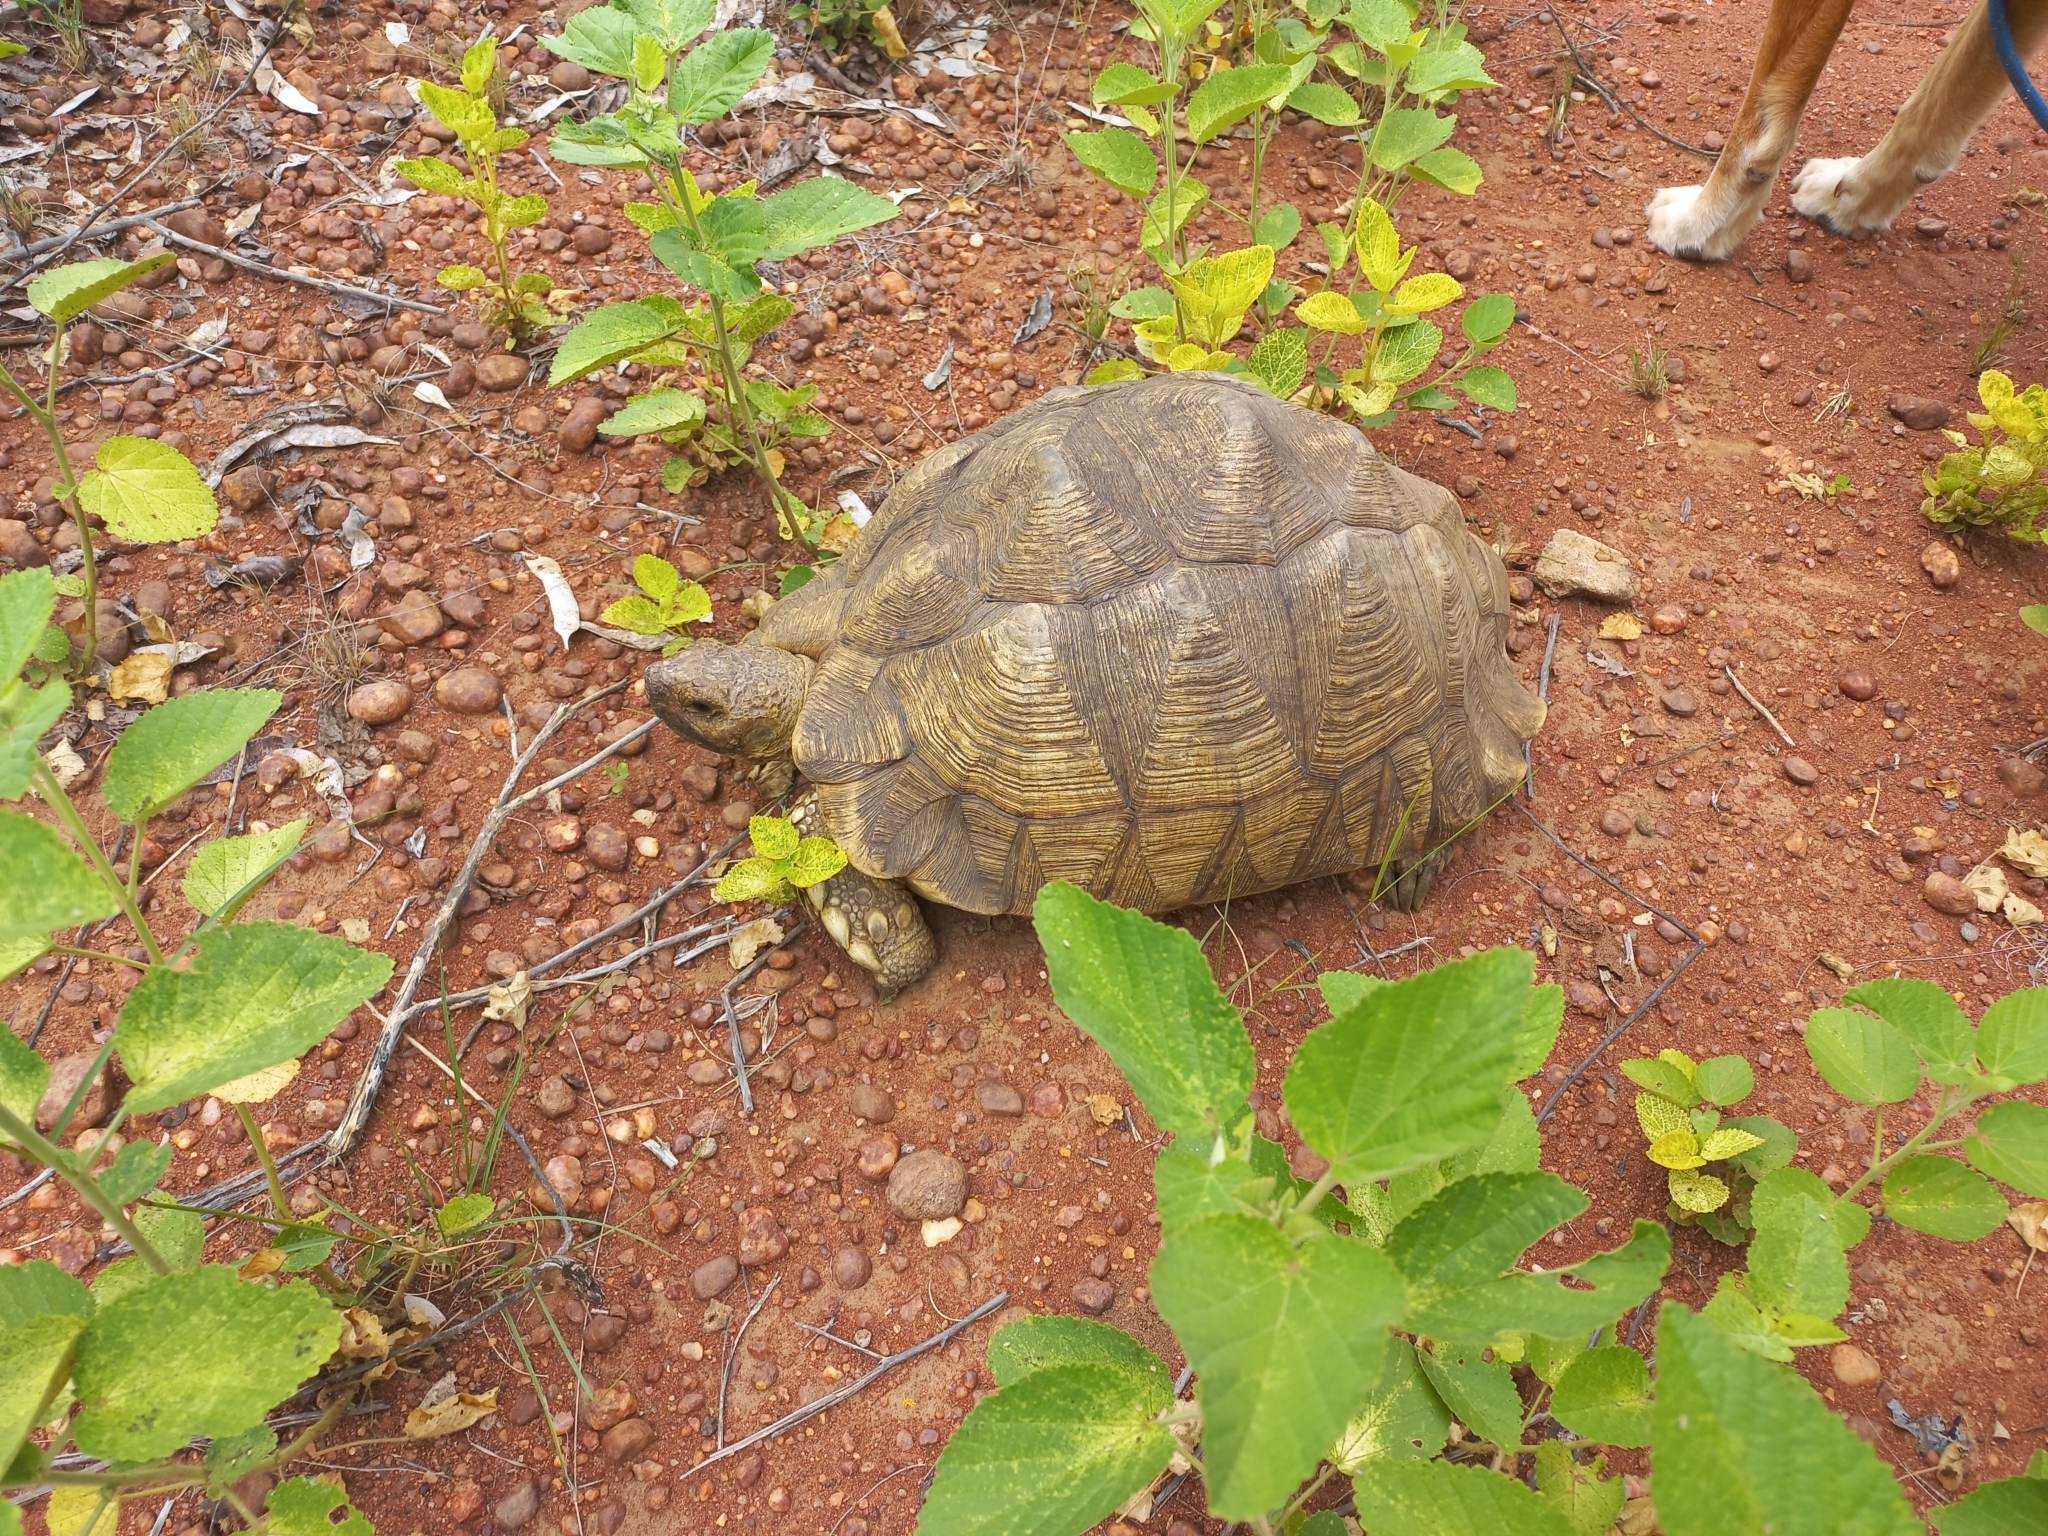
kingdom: Animalia
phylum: Chordata
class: Testudines
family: Testudinidae
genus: Stigmochelys
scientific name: Stigmochelys pardalis
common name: Leopard tortoise
